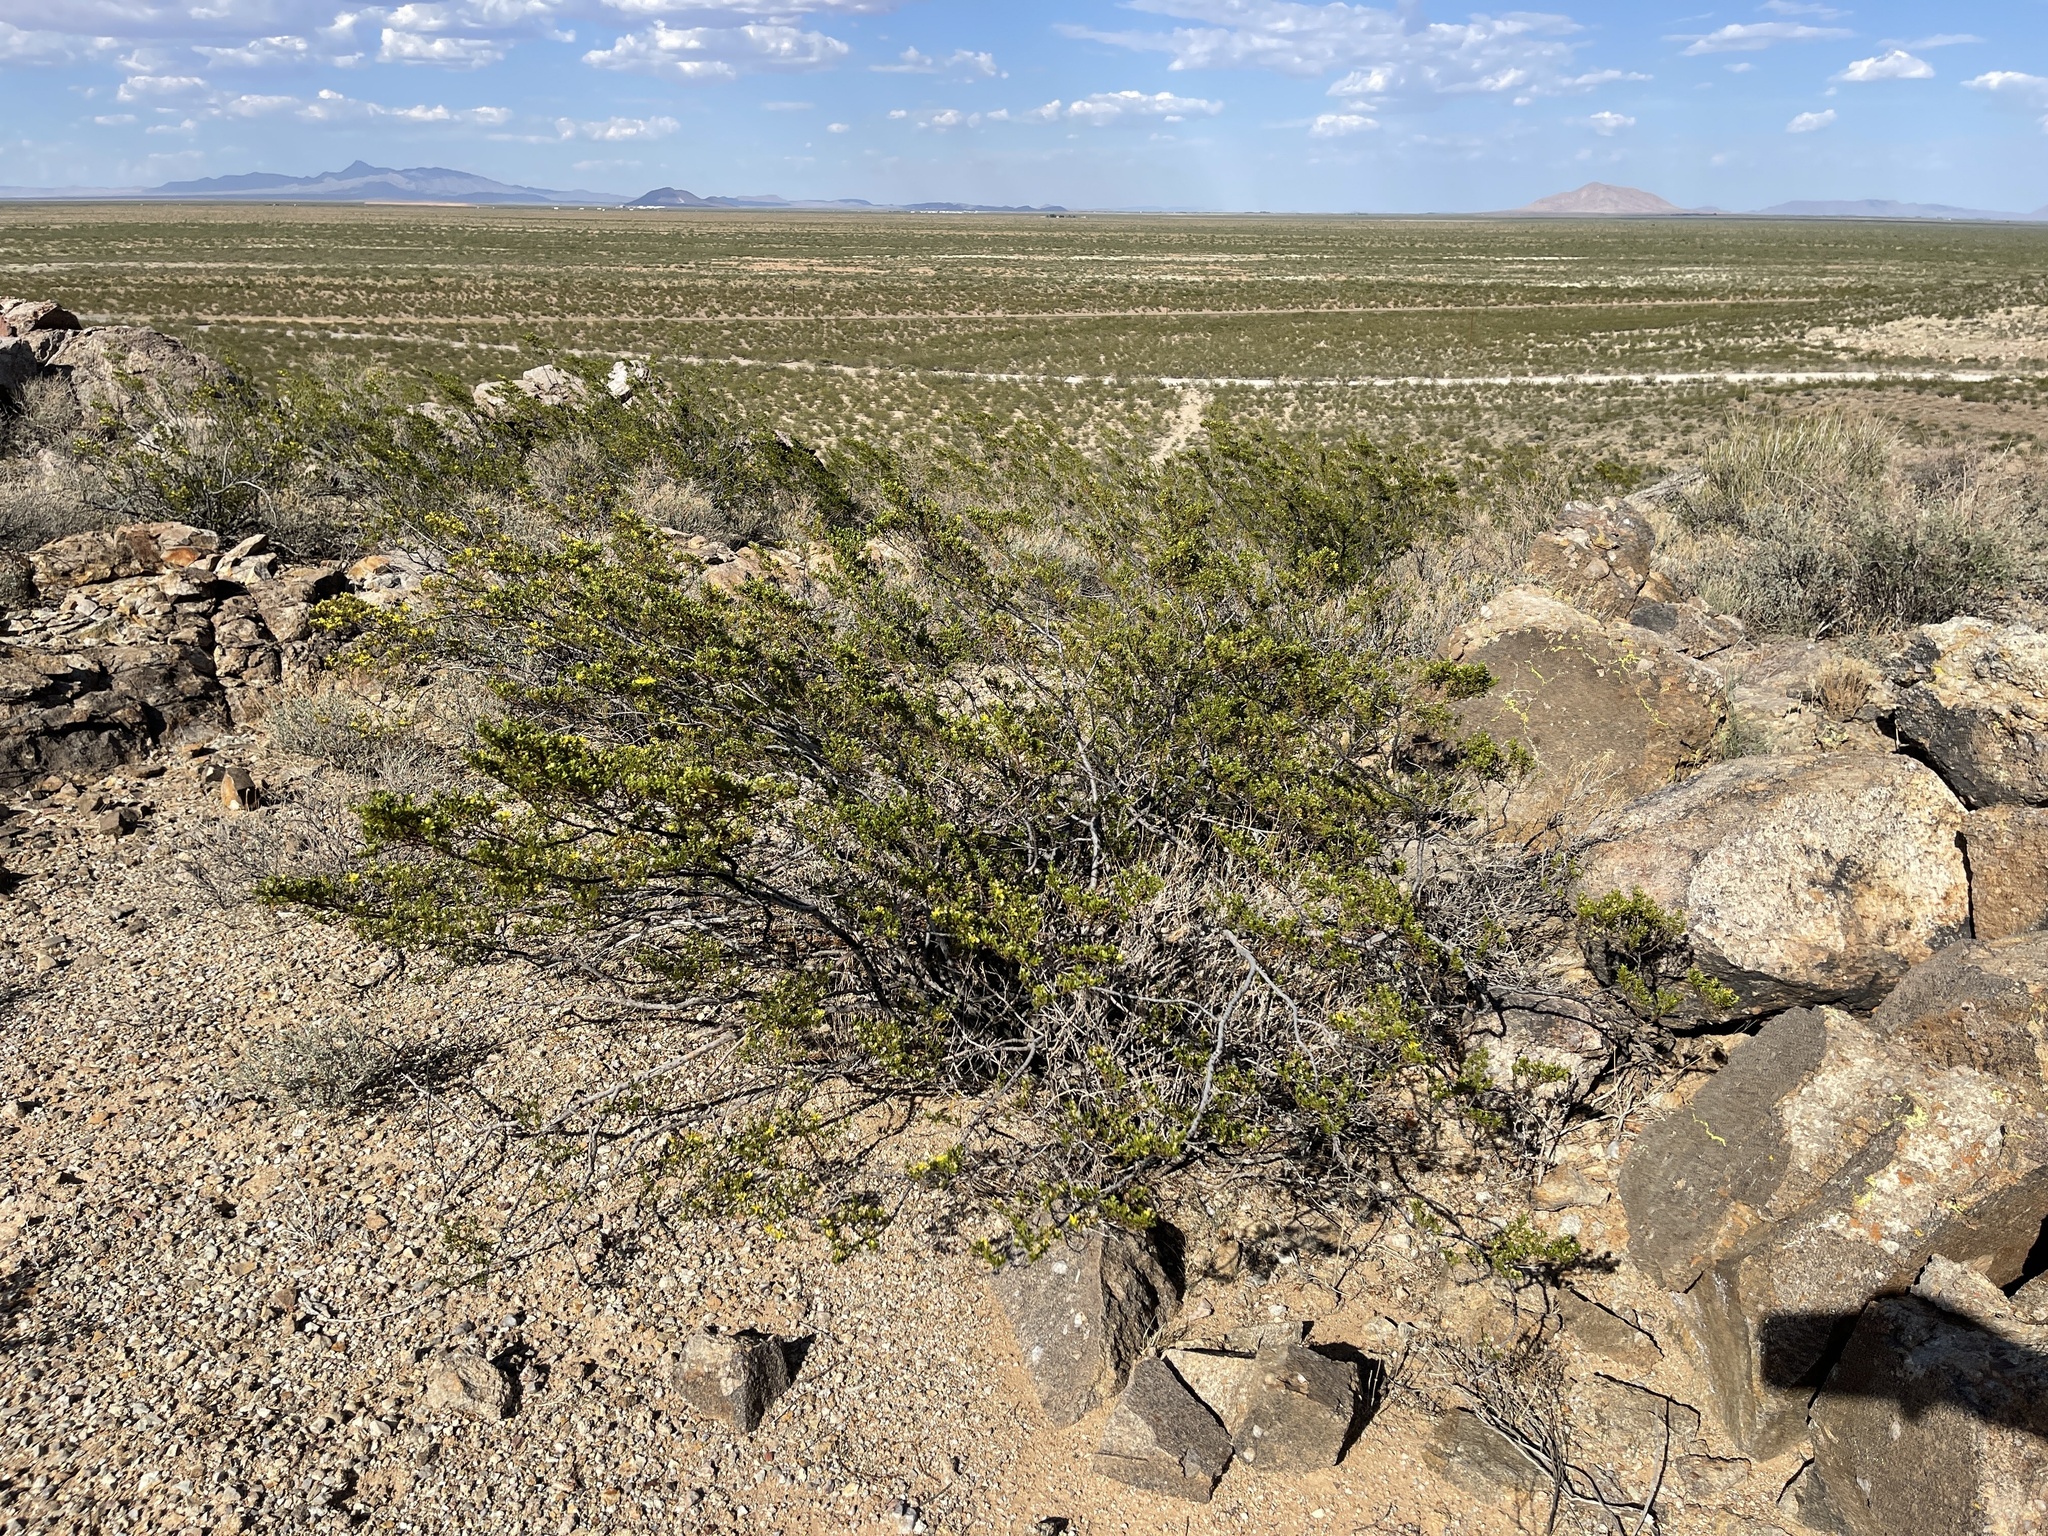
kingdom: Plantae
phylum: Tracheophyta
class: Magnoliopsida
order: Zygophyllales
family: Zygophyllaceae
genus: Larrea
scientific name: Larrea tridentata
